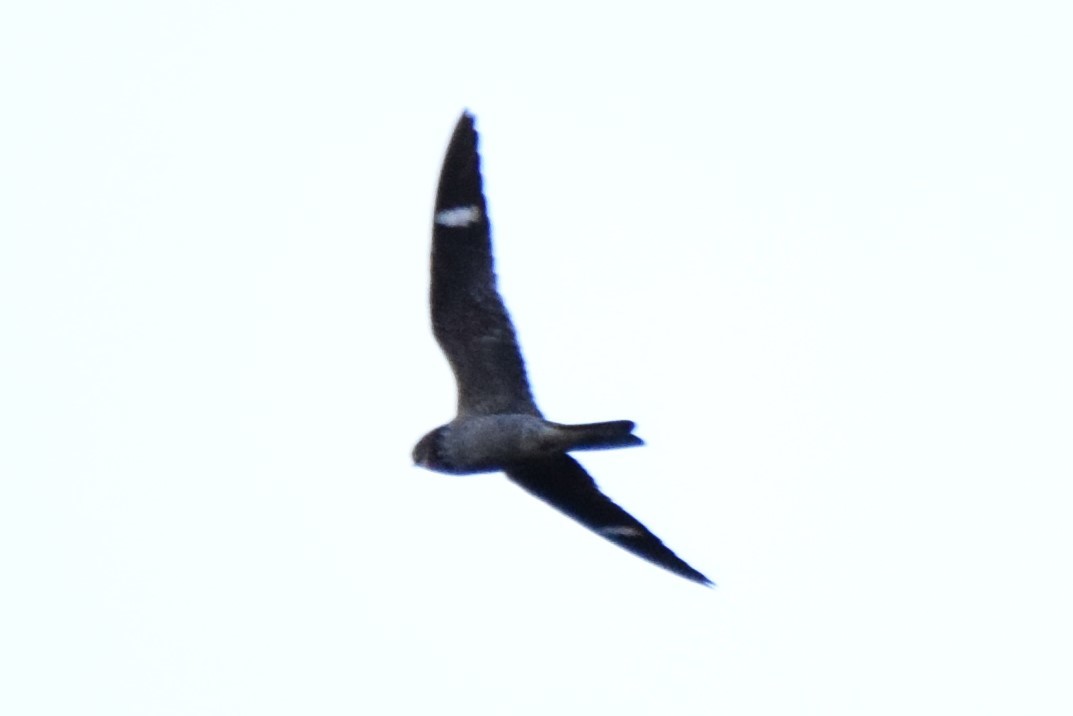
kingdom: Animalia
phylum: Chordata
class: Aves
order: Caprimulgiformes
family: Caprimulgidae
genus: Chordeiles
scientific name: Chordeiles minor
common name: Common nighthawk
